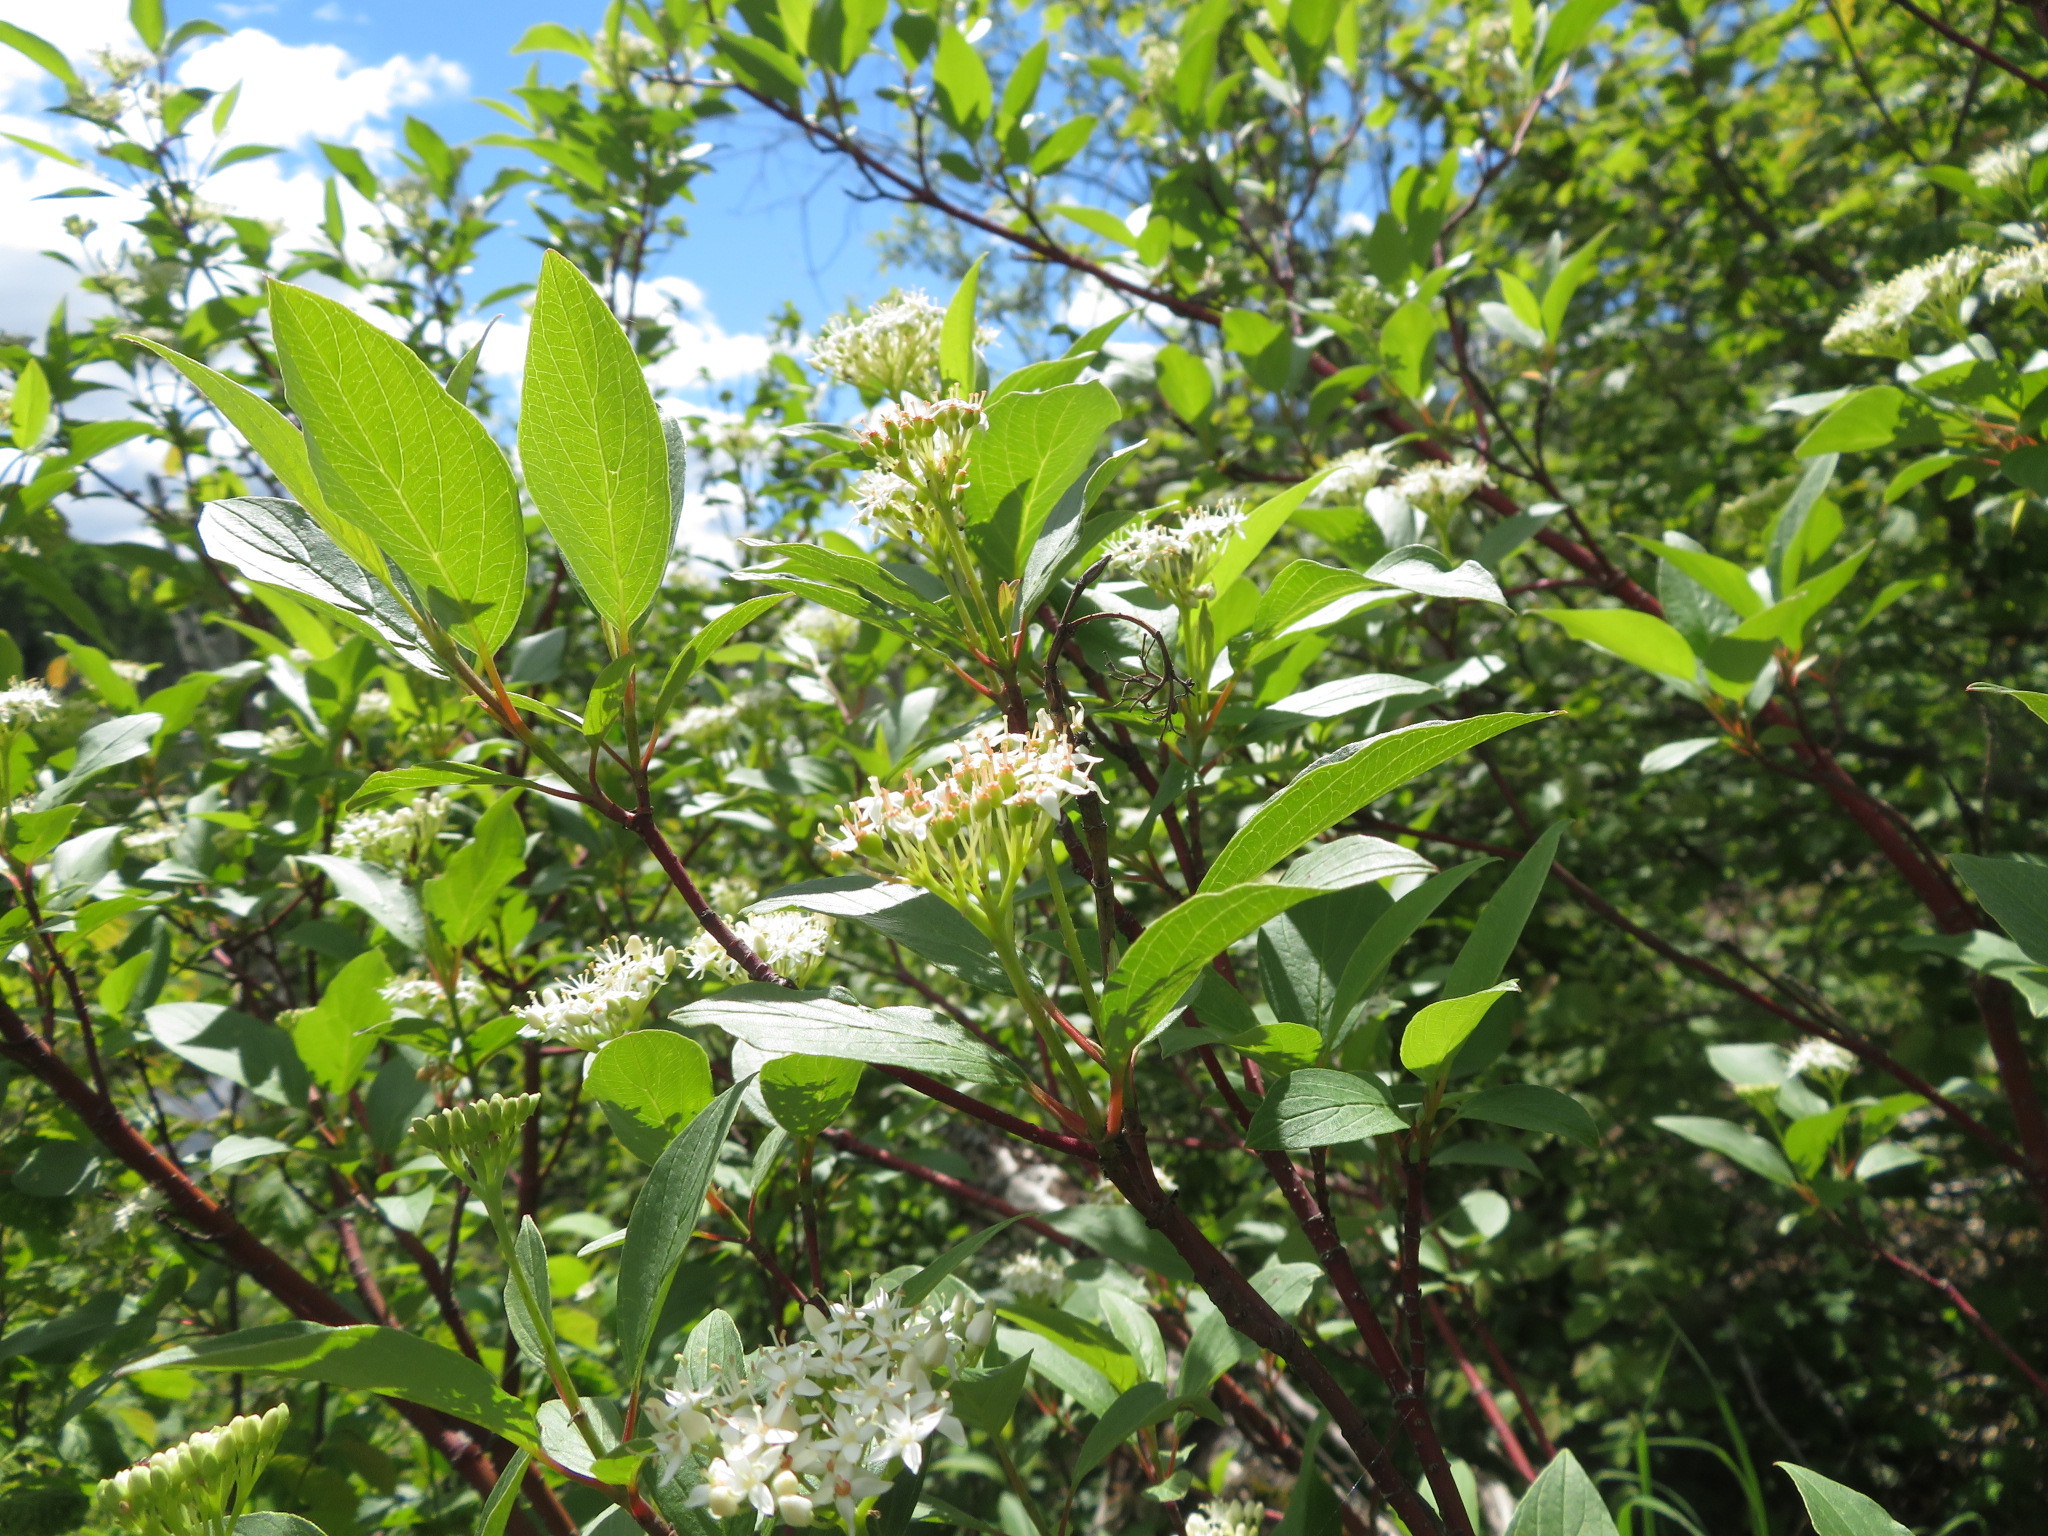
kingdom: Plantae
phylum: Tracheophyta
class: Magnoliopsida
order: Cornales
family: Cornaceae
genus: Cornus
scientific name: Cornus sericea
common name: Red-osier dogwood
